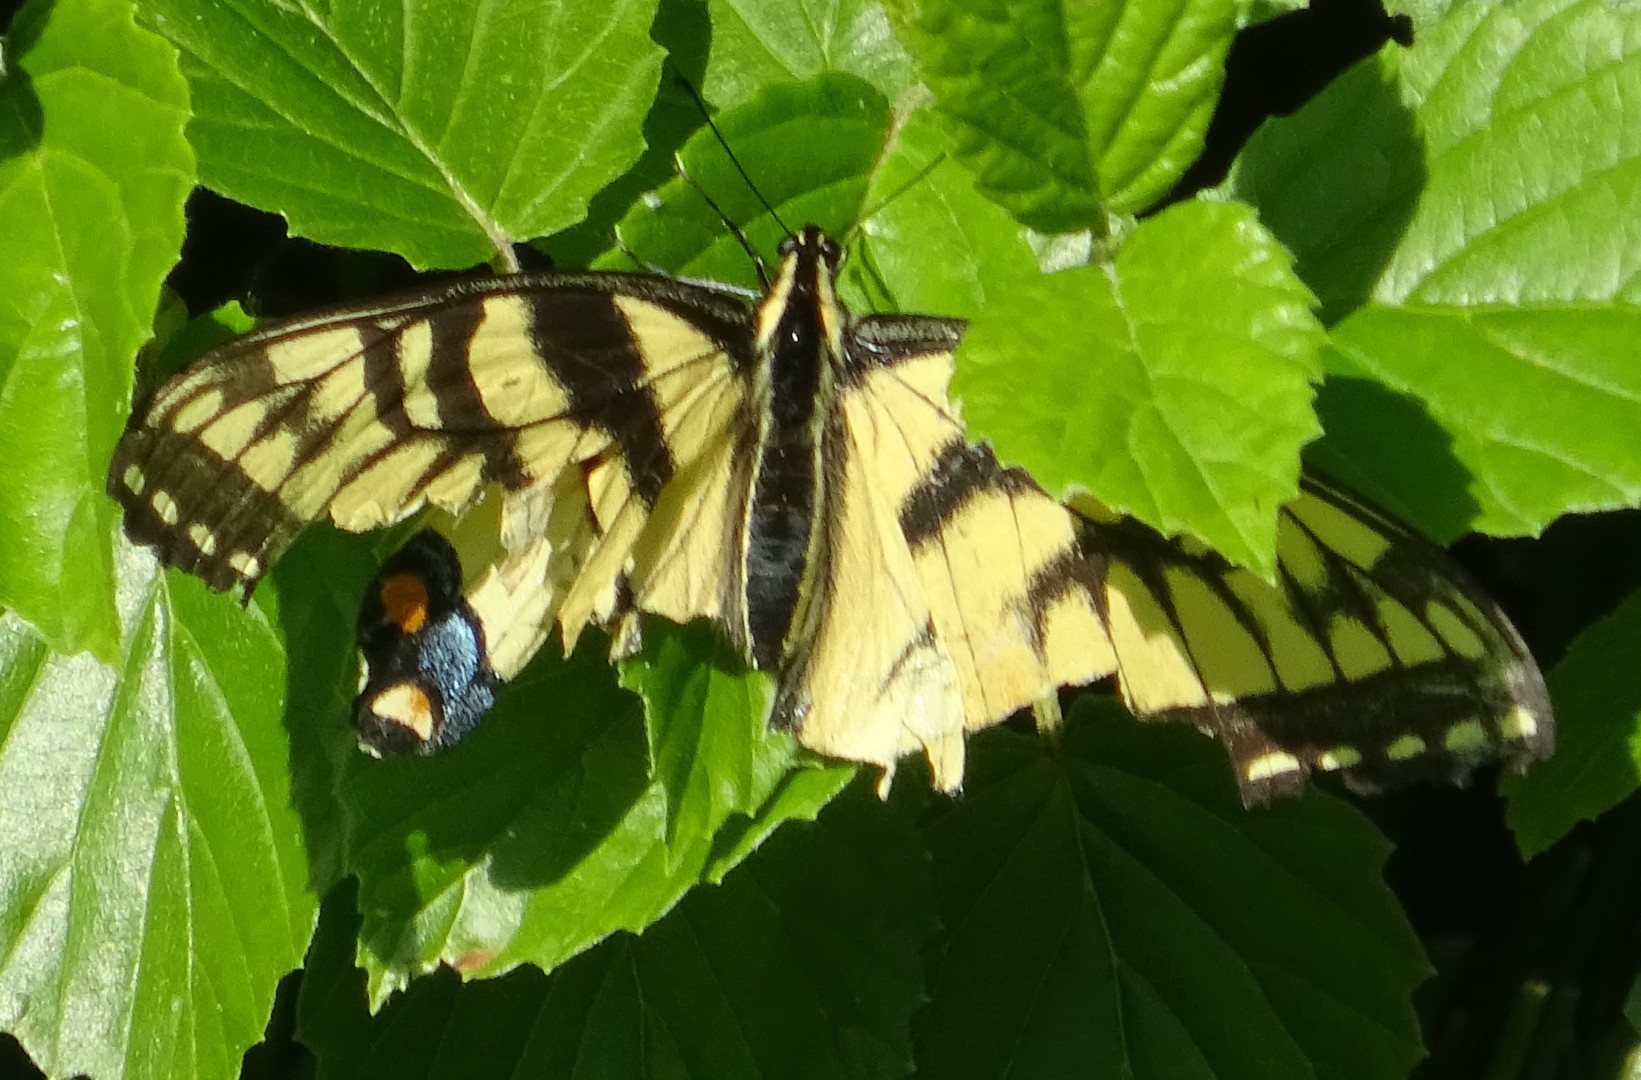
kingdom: Animalia
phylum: Arthropoda
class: Insecta
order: Lepidoptera
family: Papilionidae
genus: Papilio
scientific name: Papilio glaucus
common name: Tiger swallowtail
